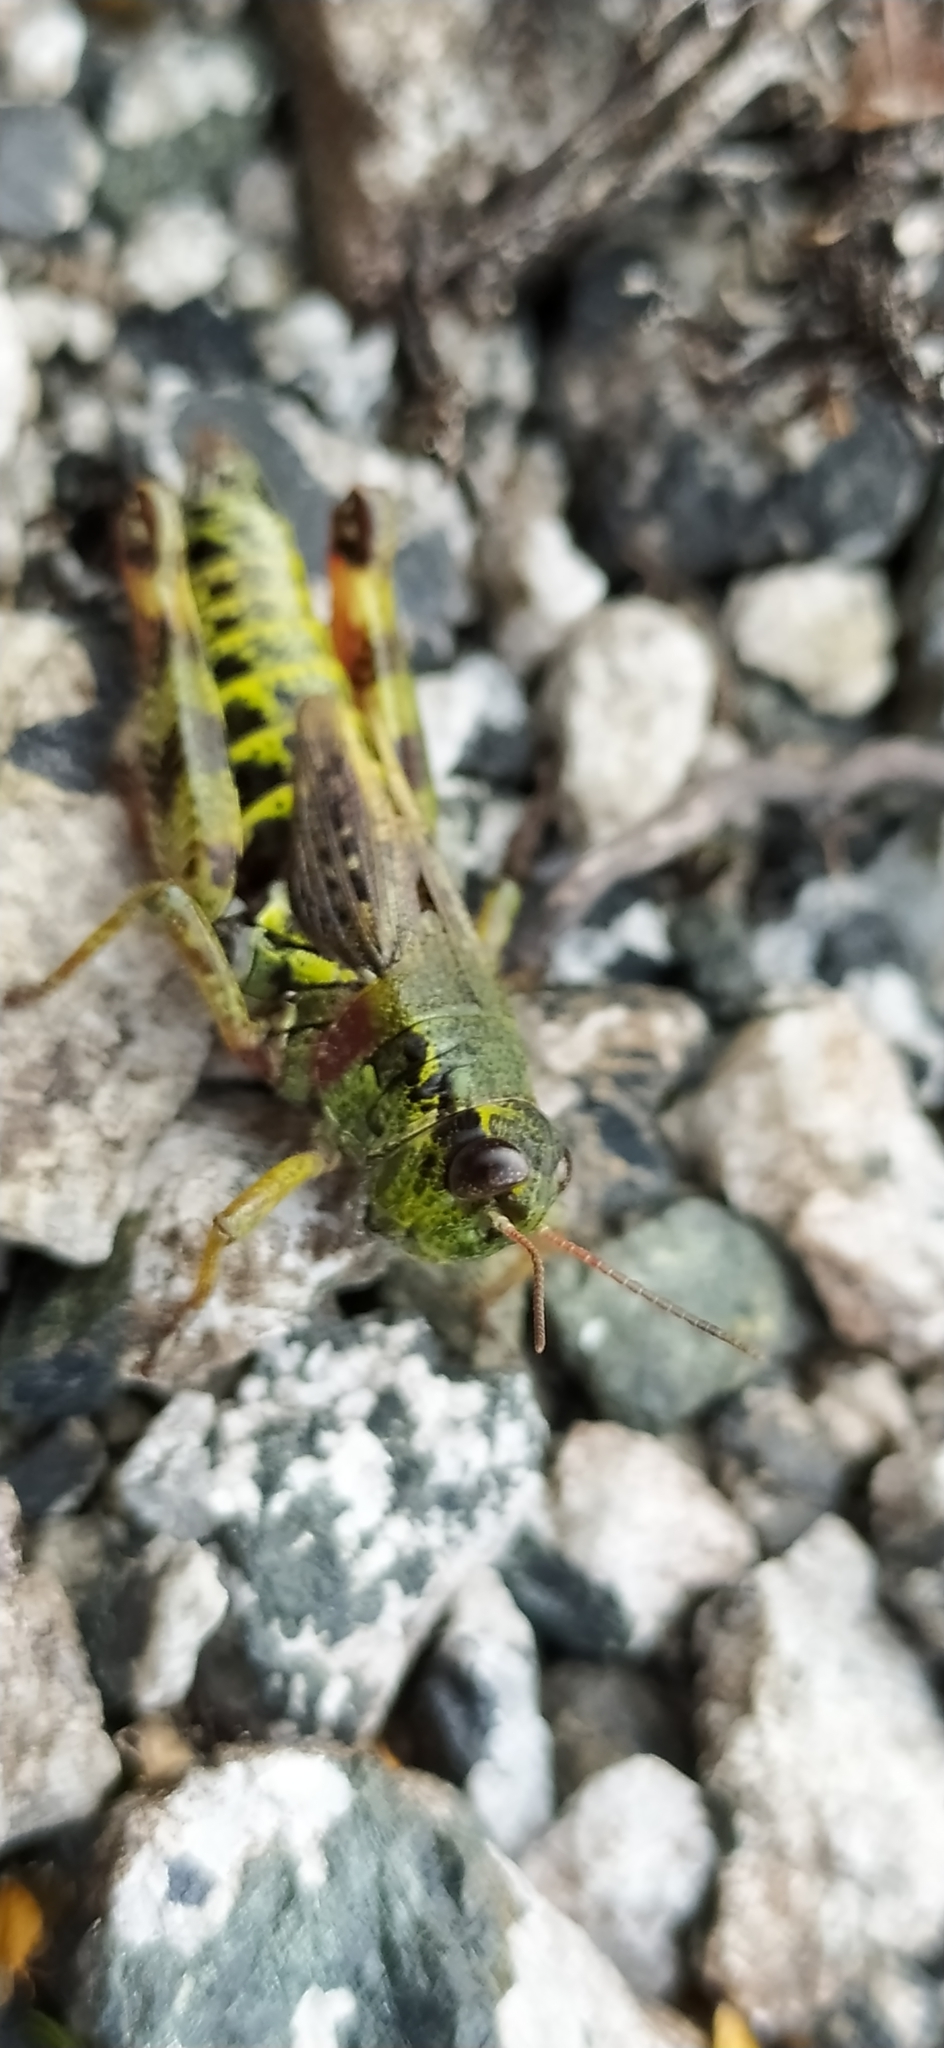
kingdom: Animalia
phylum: Arthropoda
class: Insecta
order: Orthoptera
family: Acrididae
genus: Bohemanella
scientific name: Bohemanella frigida
